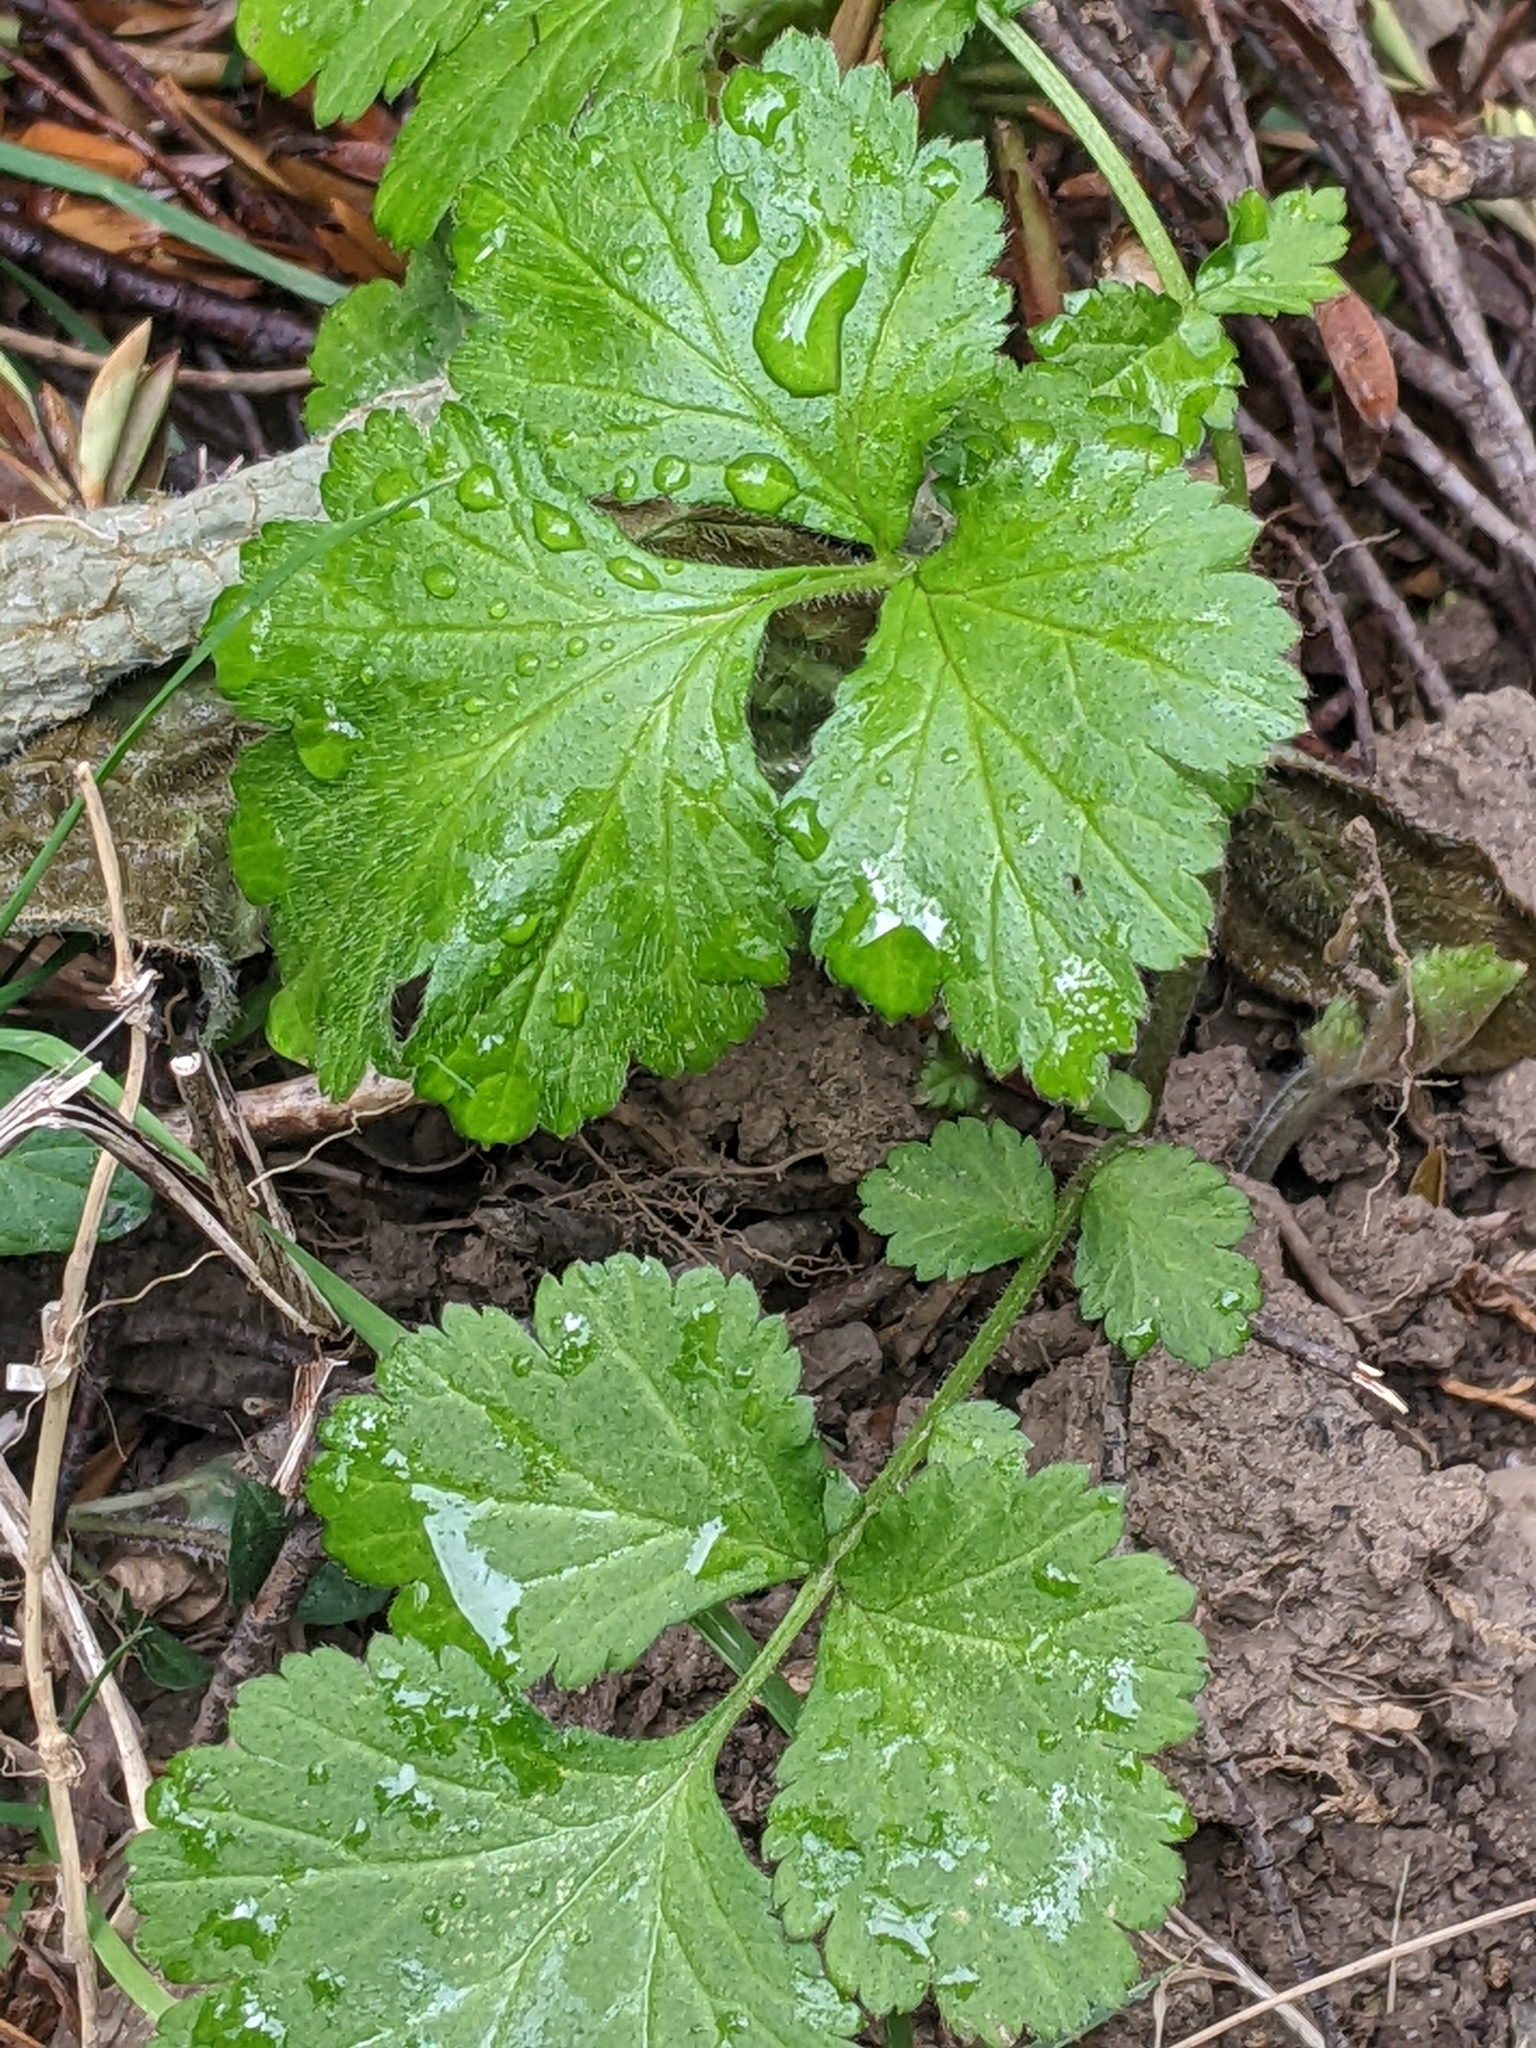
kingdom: Plantae
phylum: Tracheophyta
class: Magnoliopsida
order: Rosales
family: Rosaceae
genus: Geum
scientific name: Geum urbanum
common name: Wood avens
